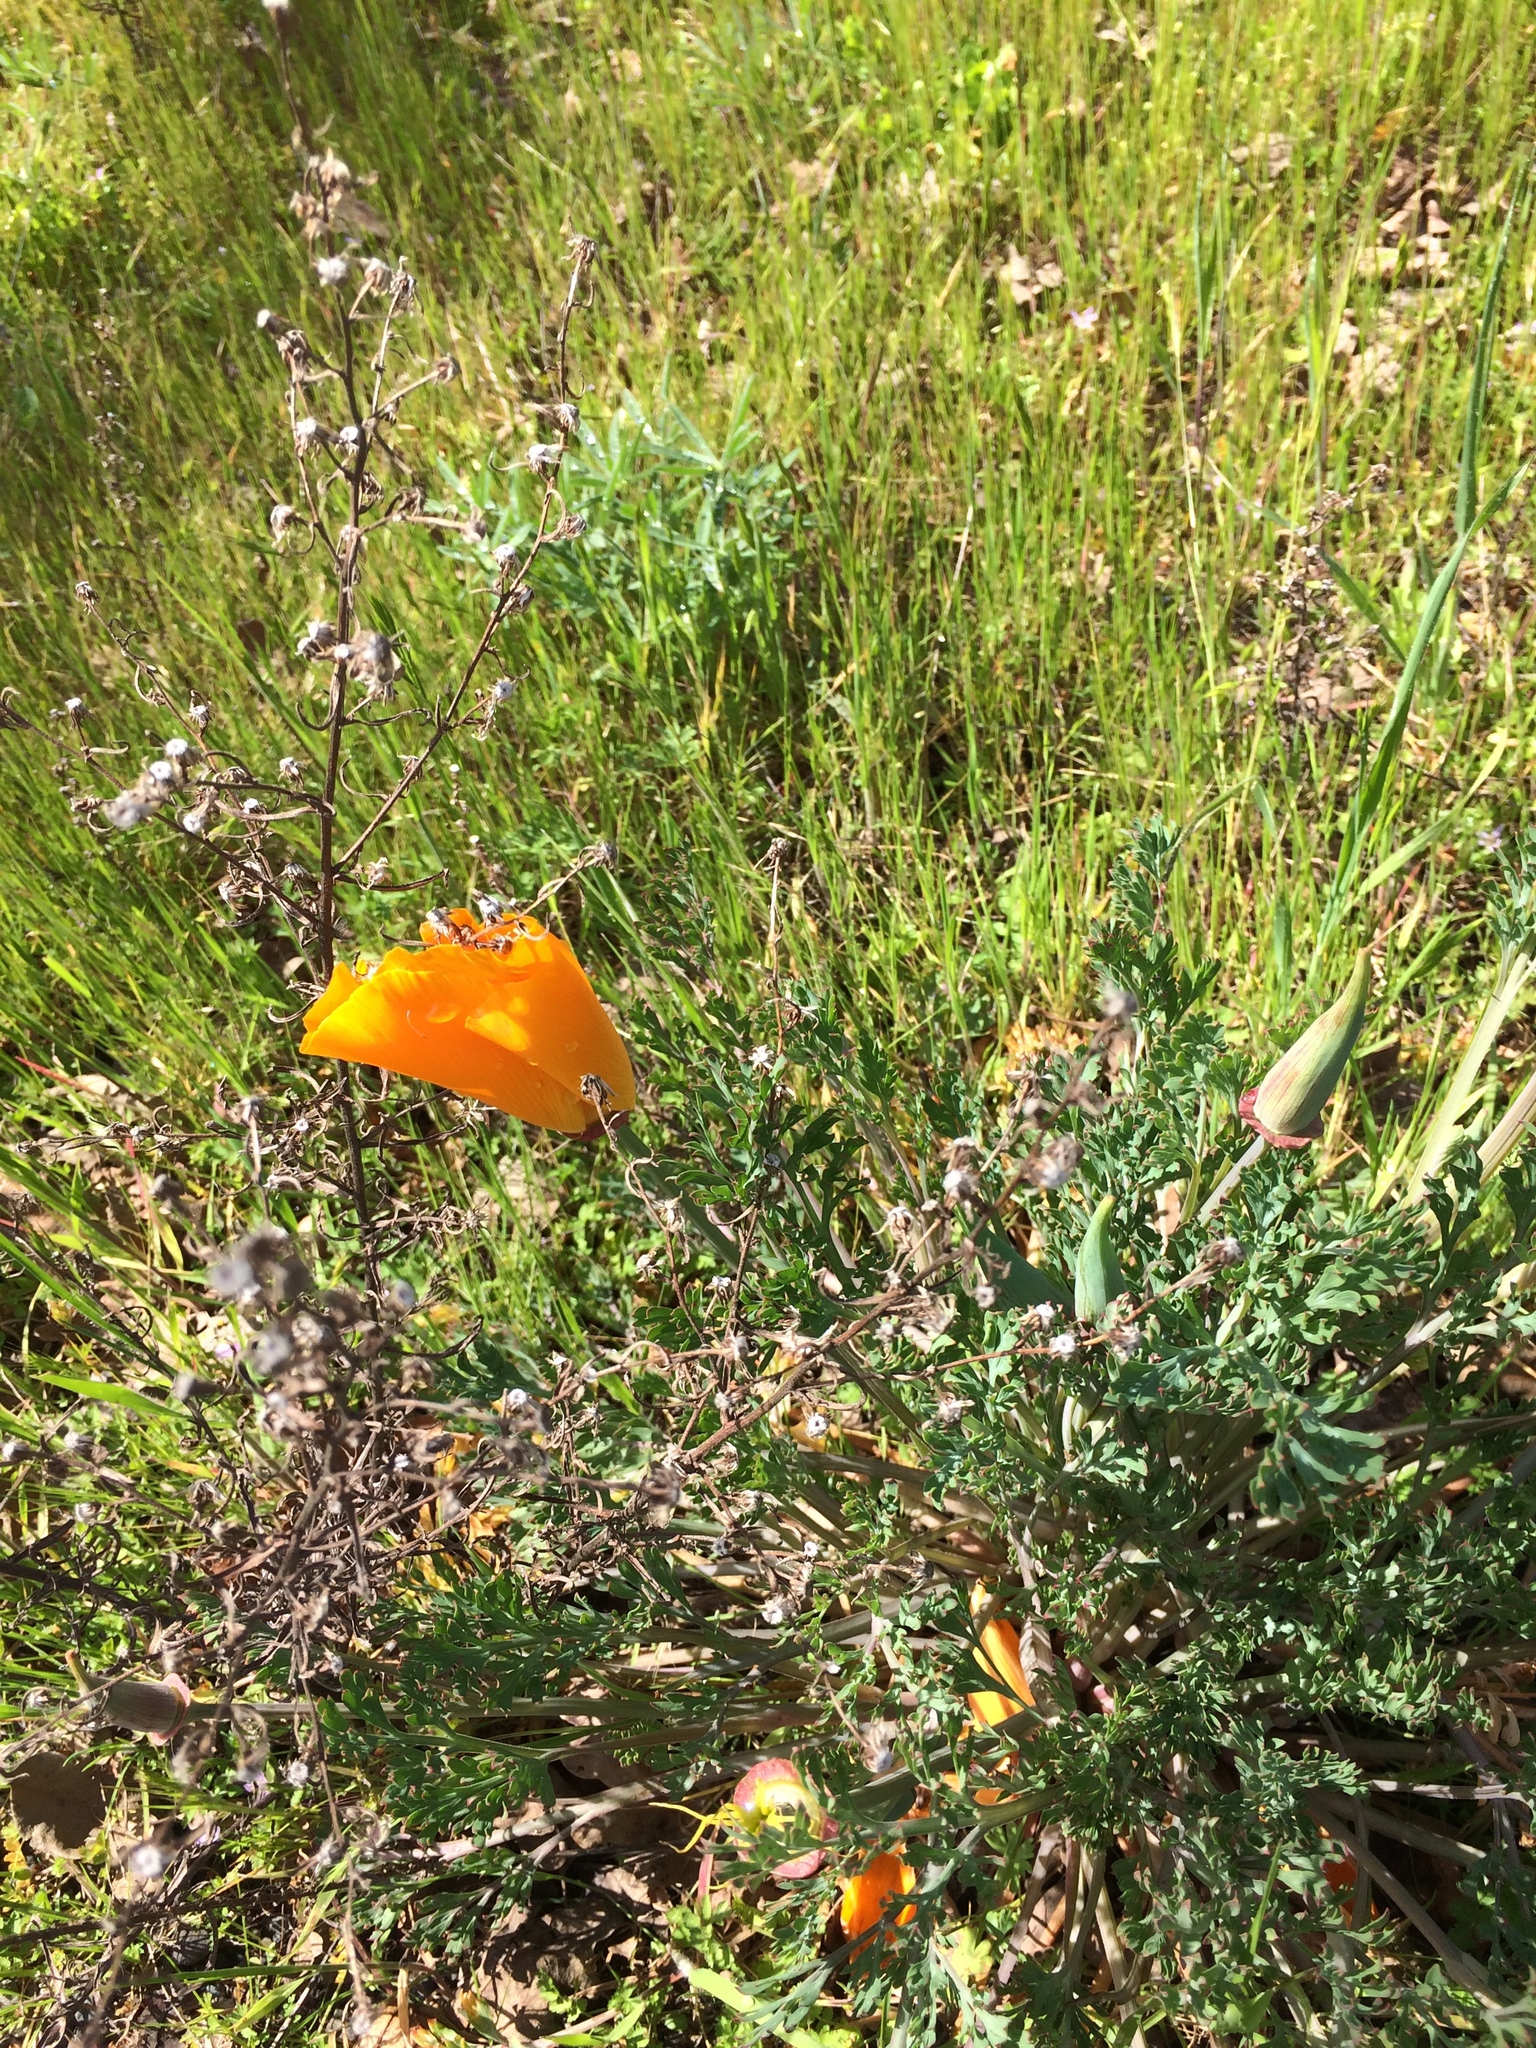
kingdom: Plantae
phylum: Tracheophyta
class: Magnoliopsida
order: Ranunculales
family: Papaveraceae
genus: Eschscholzia
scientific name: Eschscholzia californica
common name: California poppy
